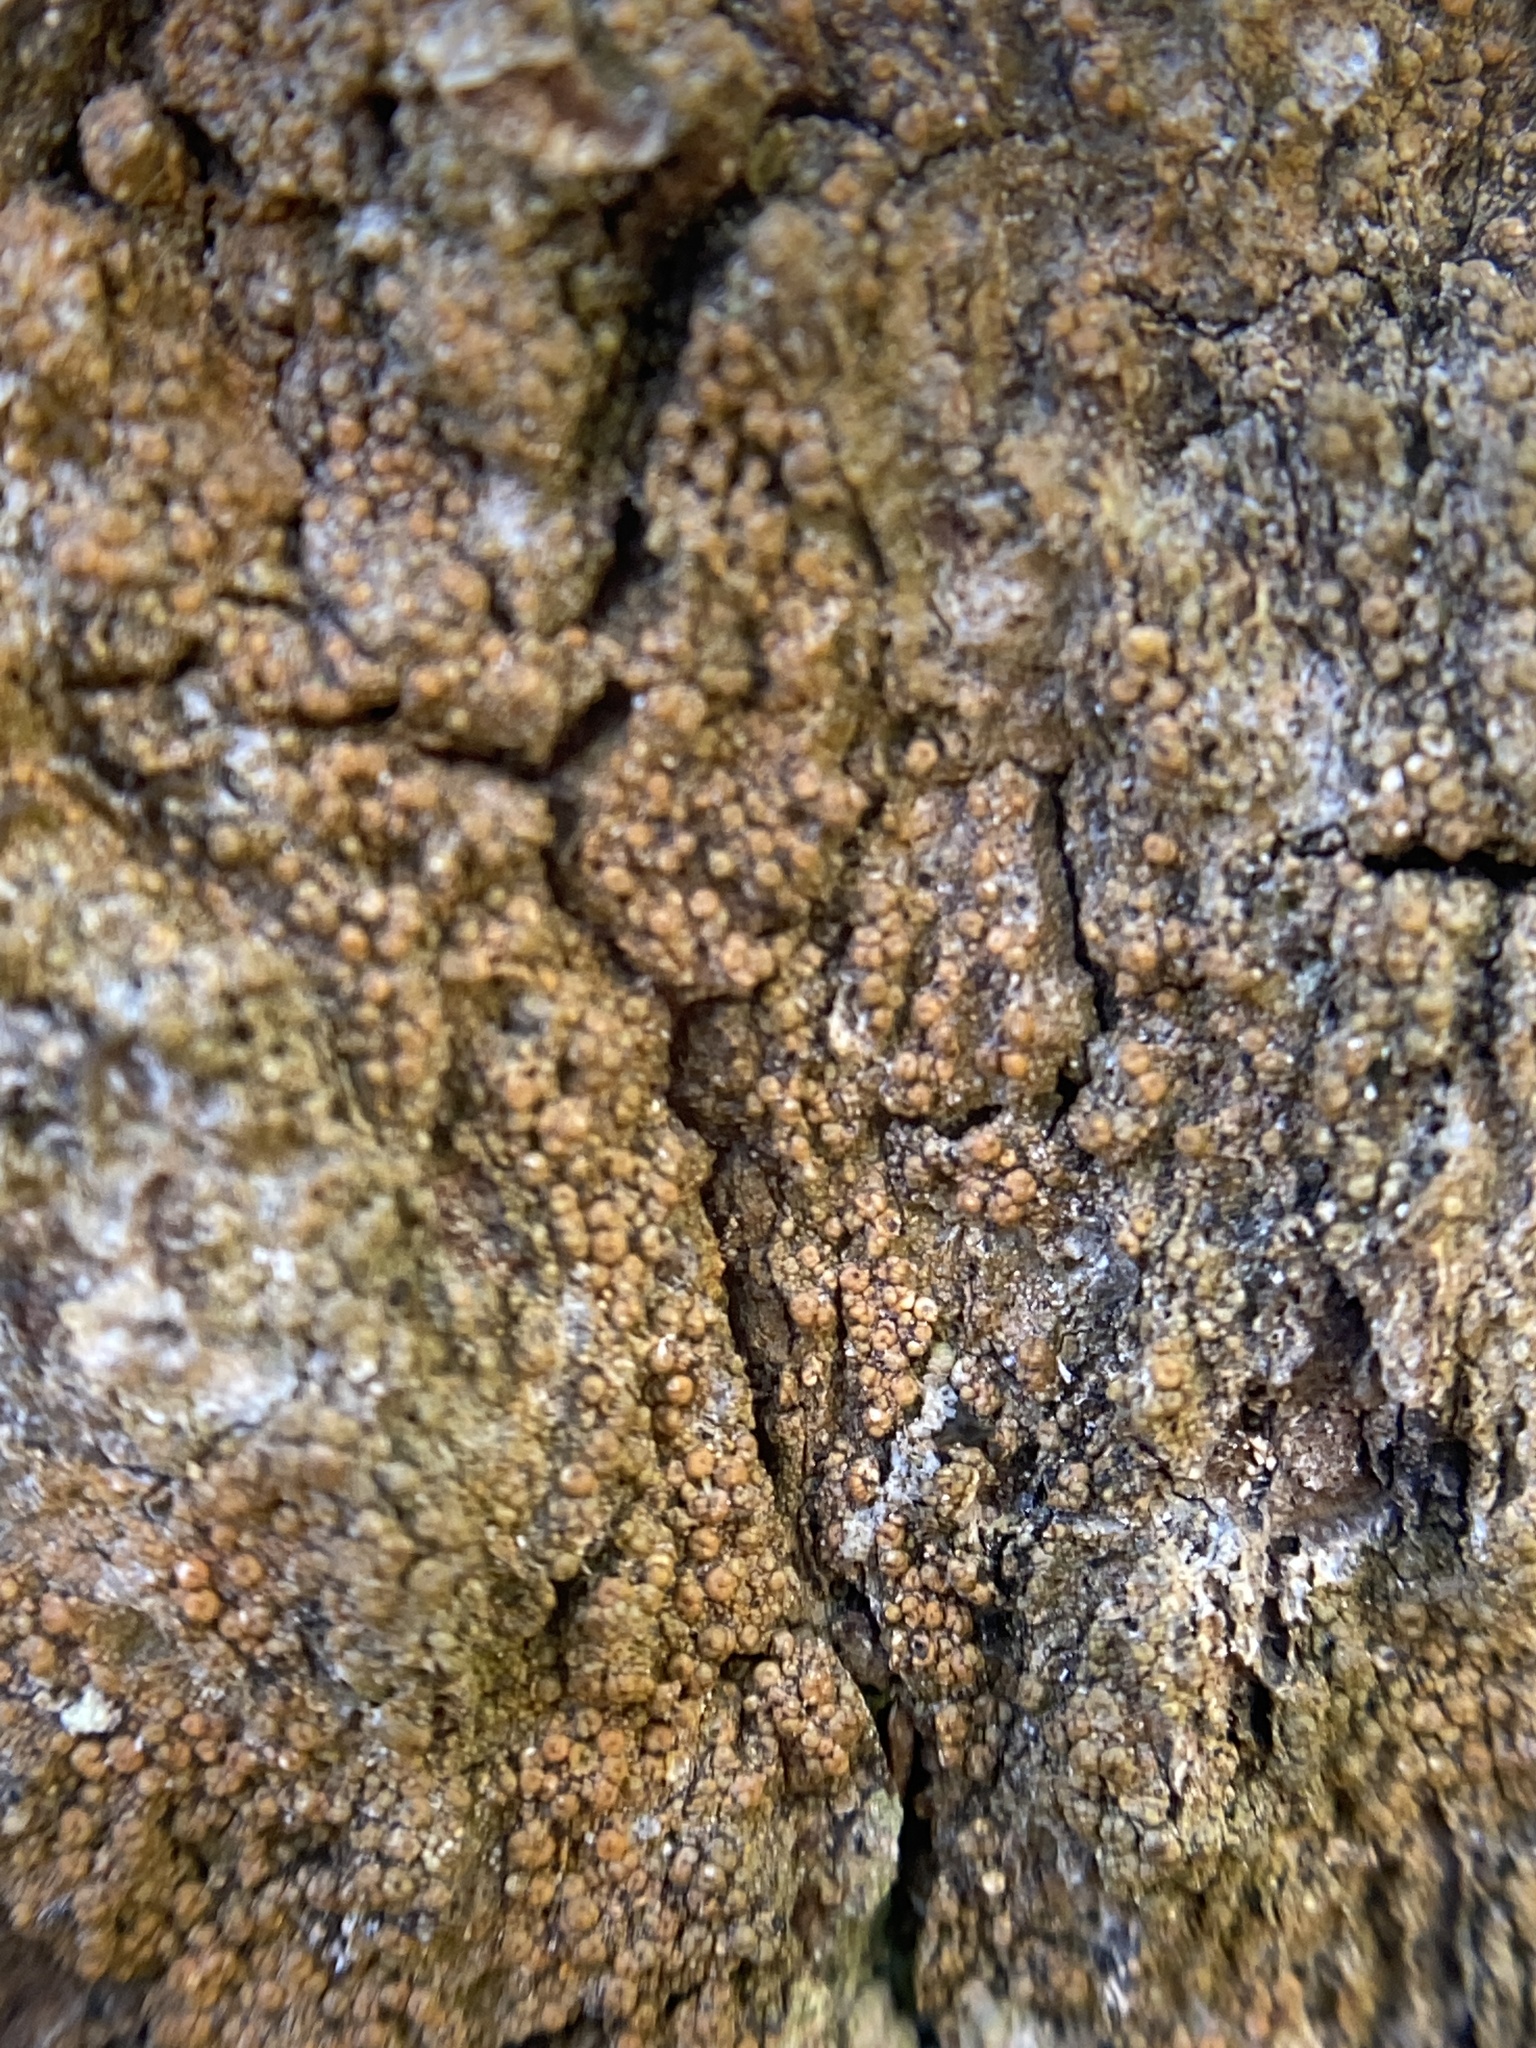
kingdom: Fungi
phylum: Ascomycota
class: Lecanoromycetes
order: Pertusariales
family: Pertusariaceae
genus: Porina
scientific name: Porina heterospora
